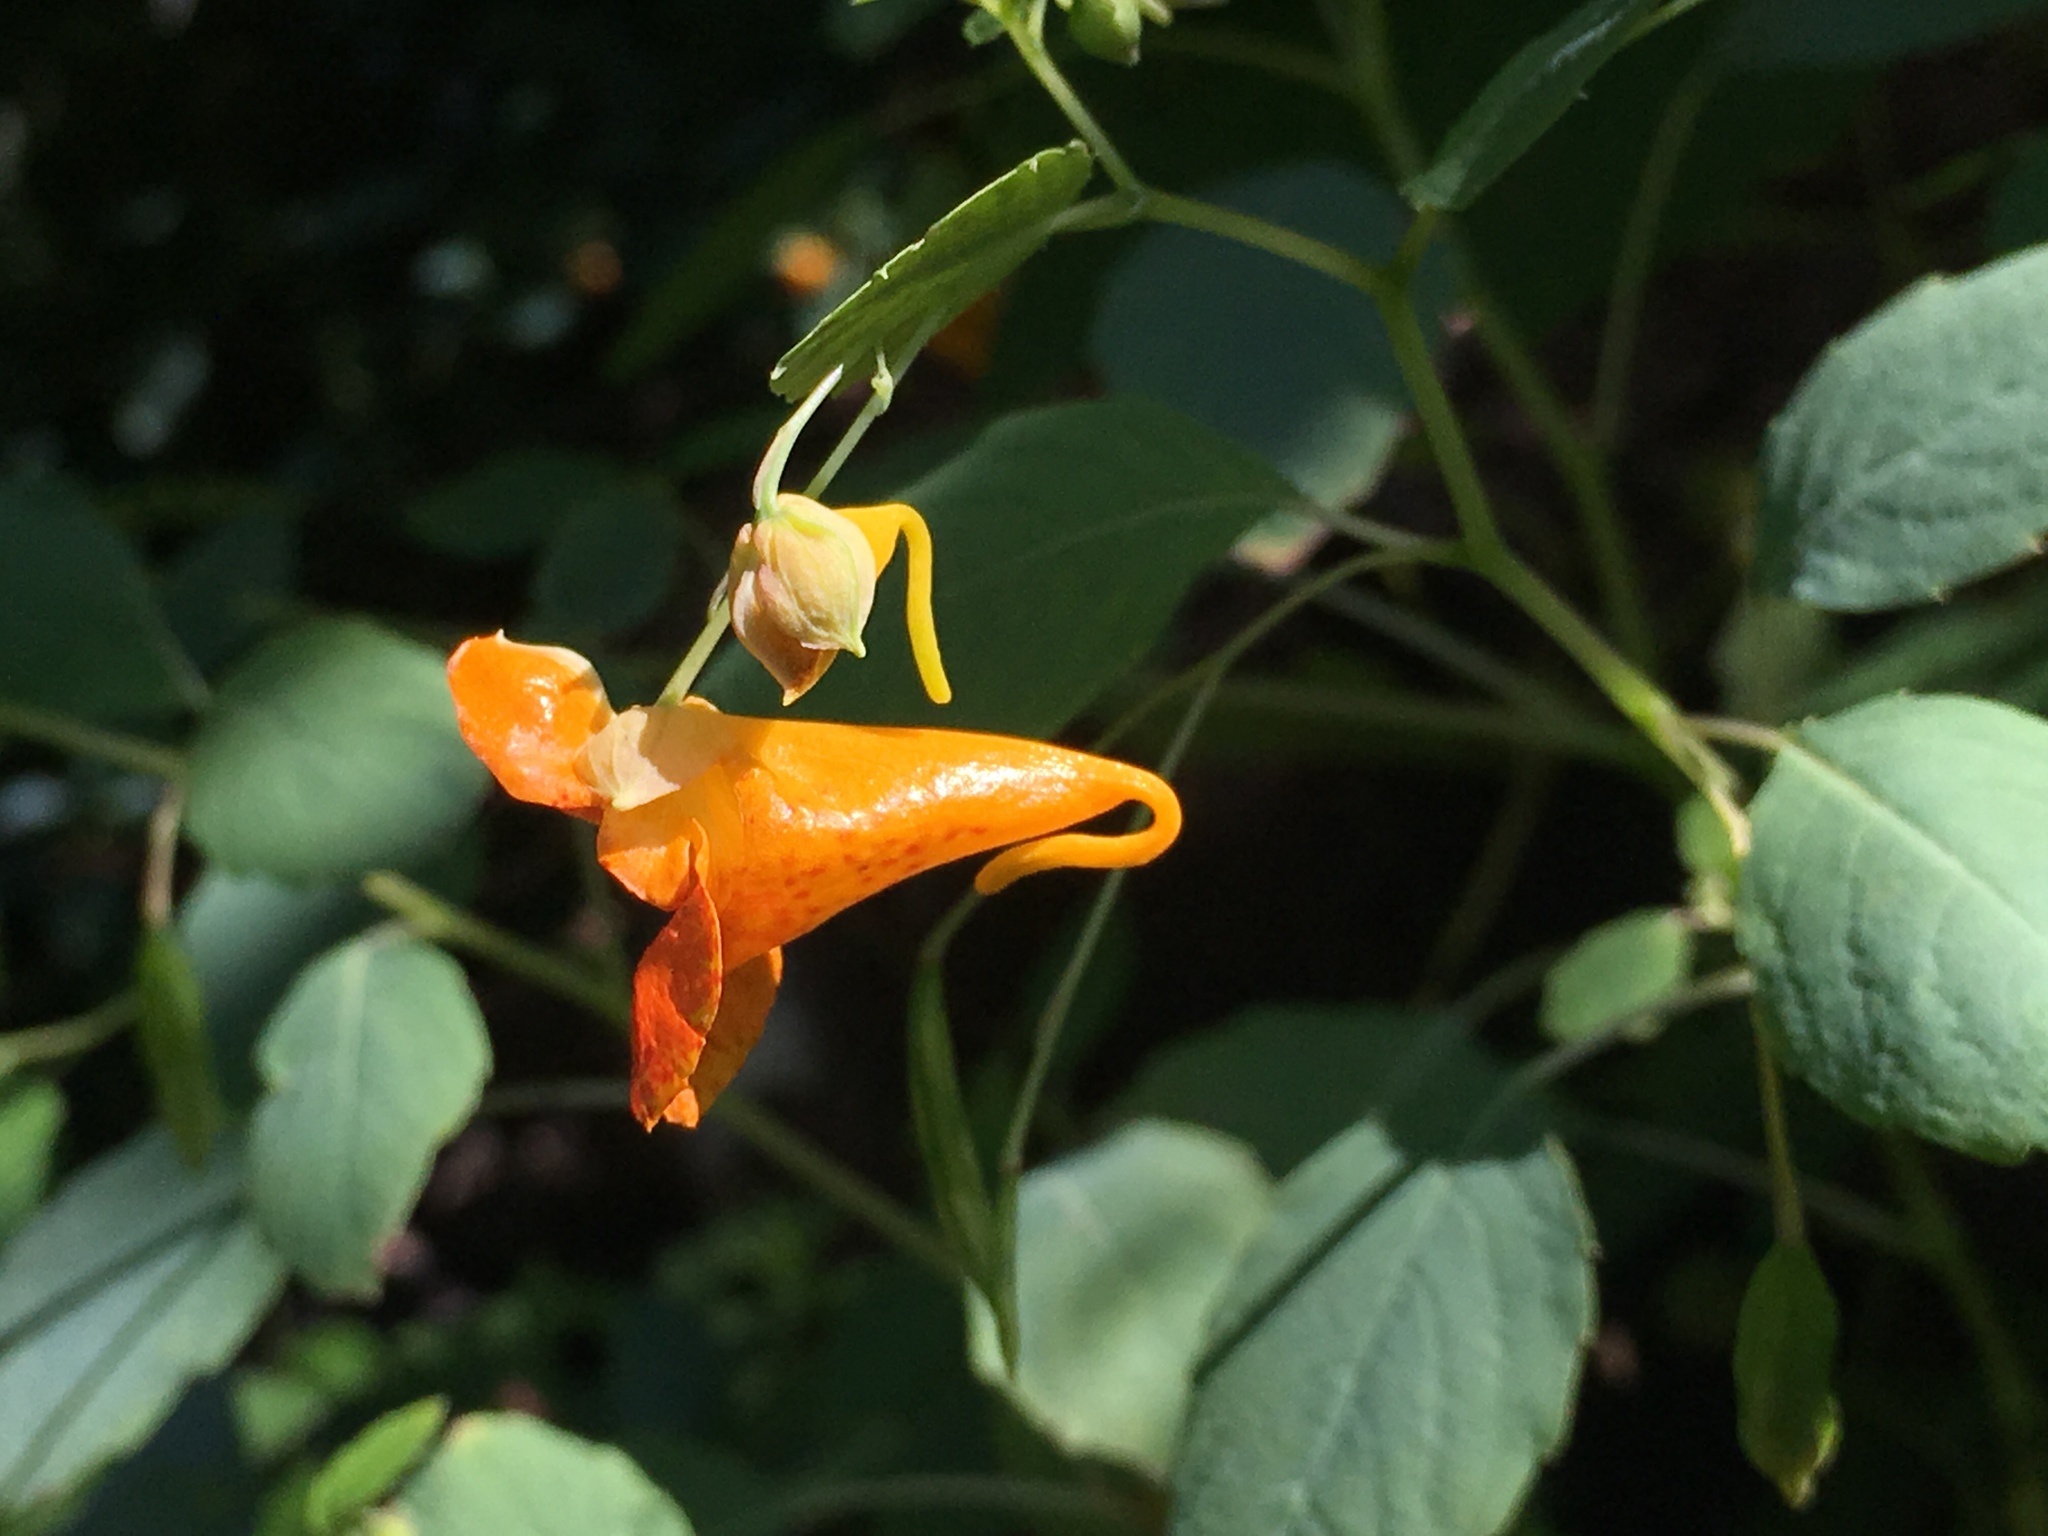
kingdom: Plantae
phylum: Tracheophyta
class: Magnoliopsida
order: Ericales
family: Balsaminaceae
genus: Impatiens
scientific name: Impatiens capensis
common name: Orange balsam
